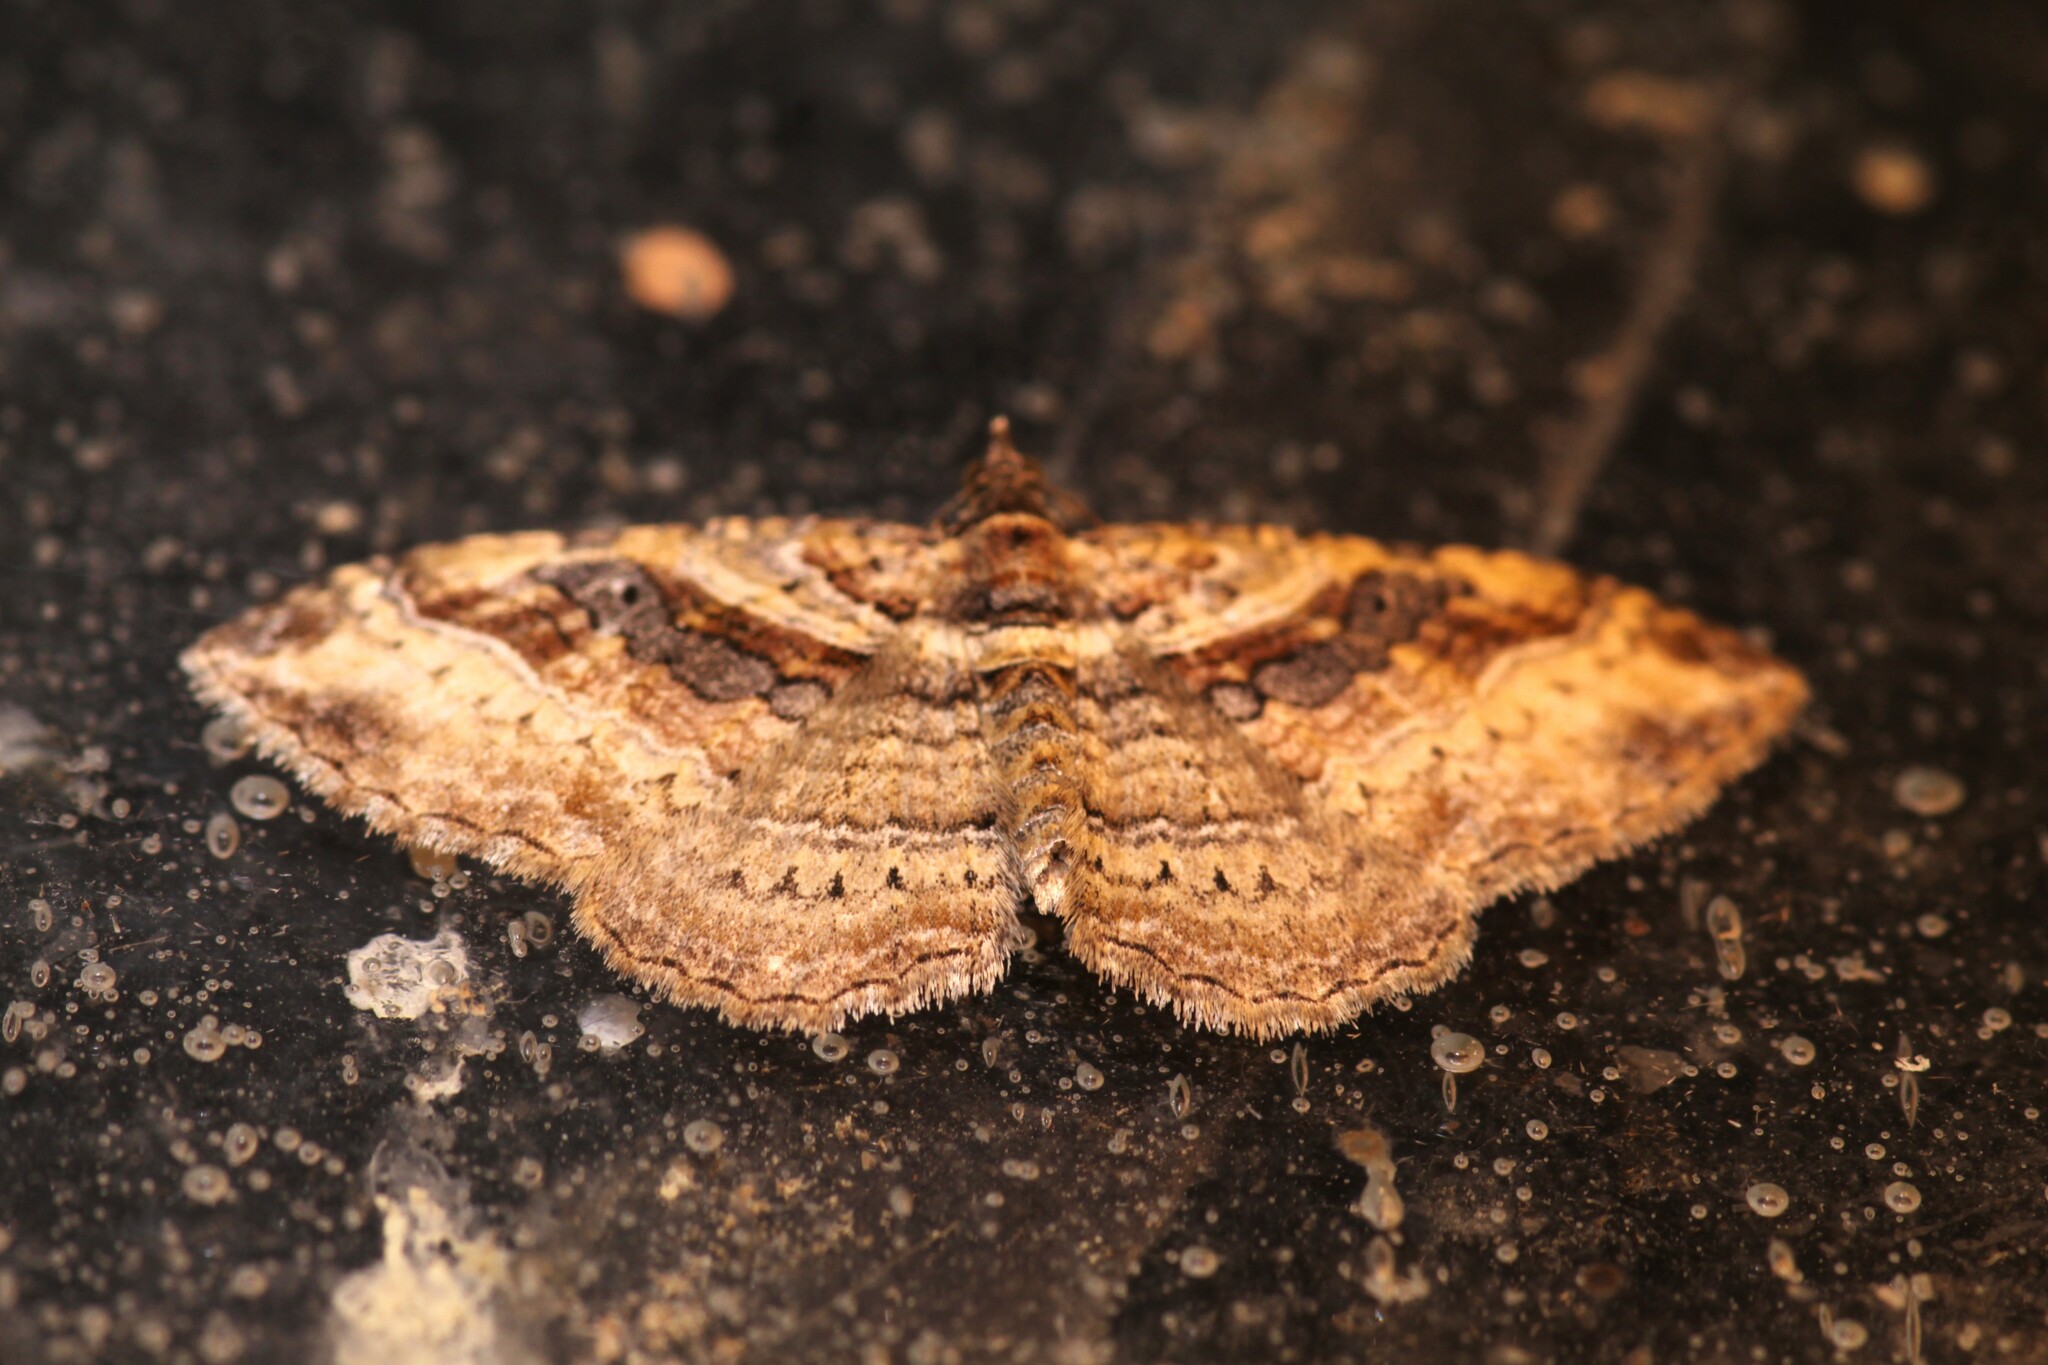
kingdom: Animalia
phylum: Arthropoda
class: Insecta
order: Lepidoptera
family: Geometridae
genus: Costaconvexa
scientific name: Costaconvexa centrostrigaria
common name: Bent-line carpet
